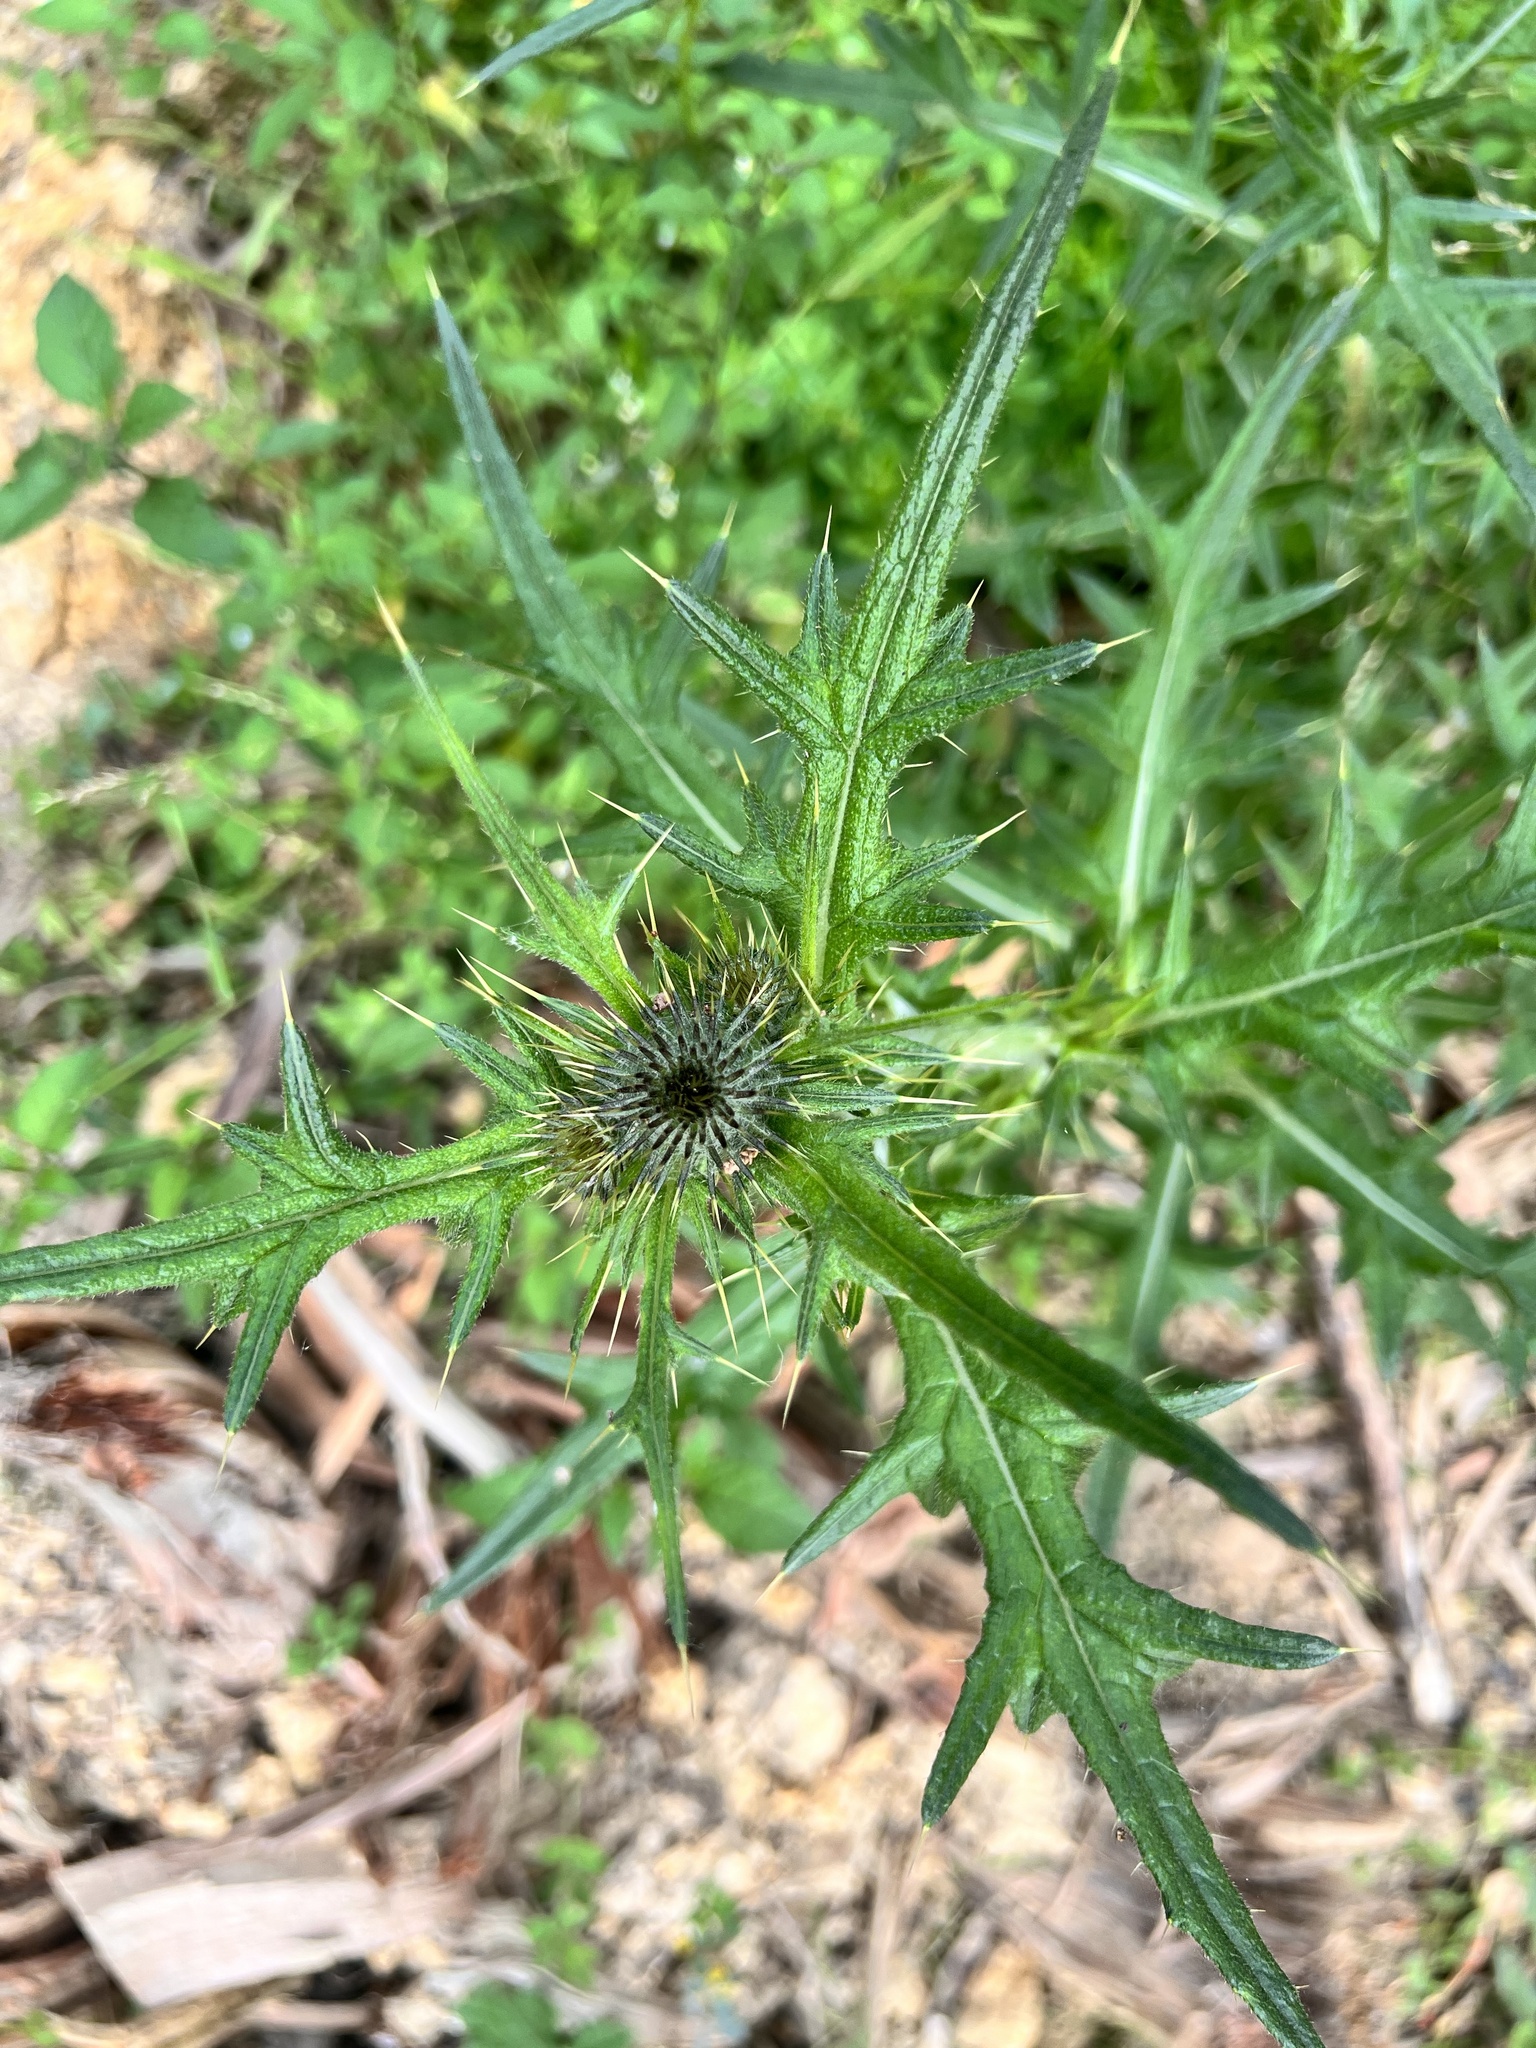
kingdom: Plantae
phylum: Tracheophyta
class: Magnoliopsida
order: Asterales
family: Asteraceae
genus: Cirsium
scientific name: Cirsium vulgare
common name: Bull thistle
